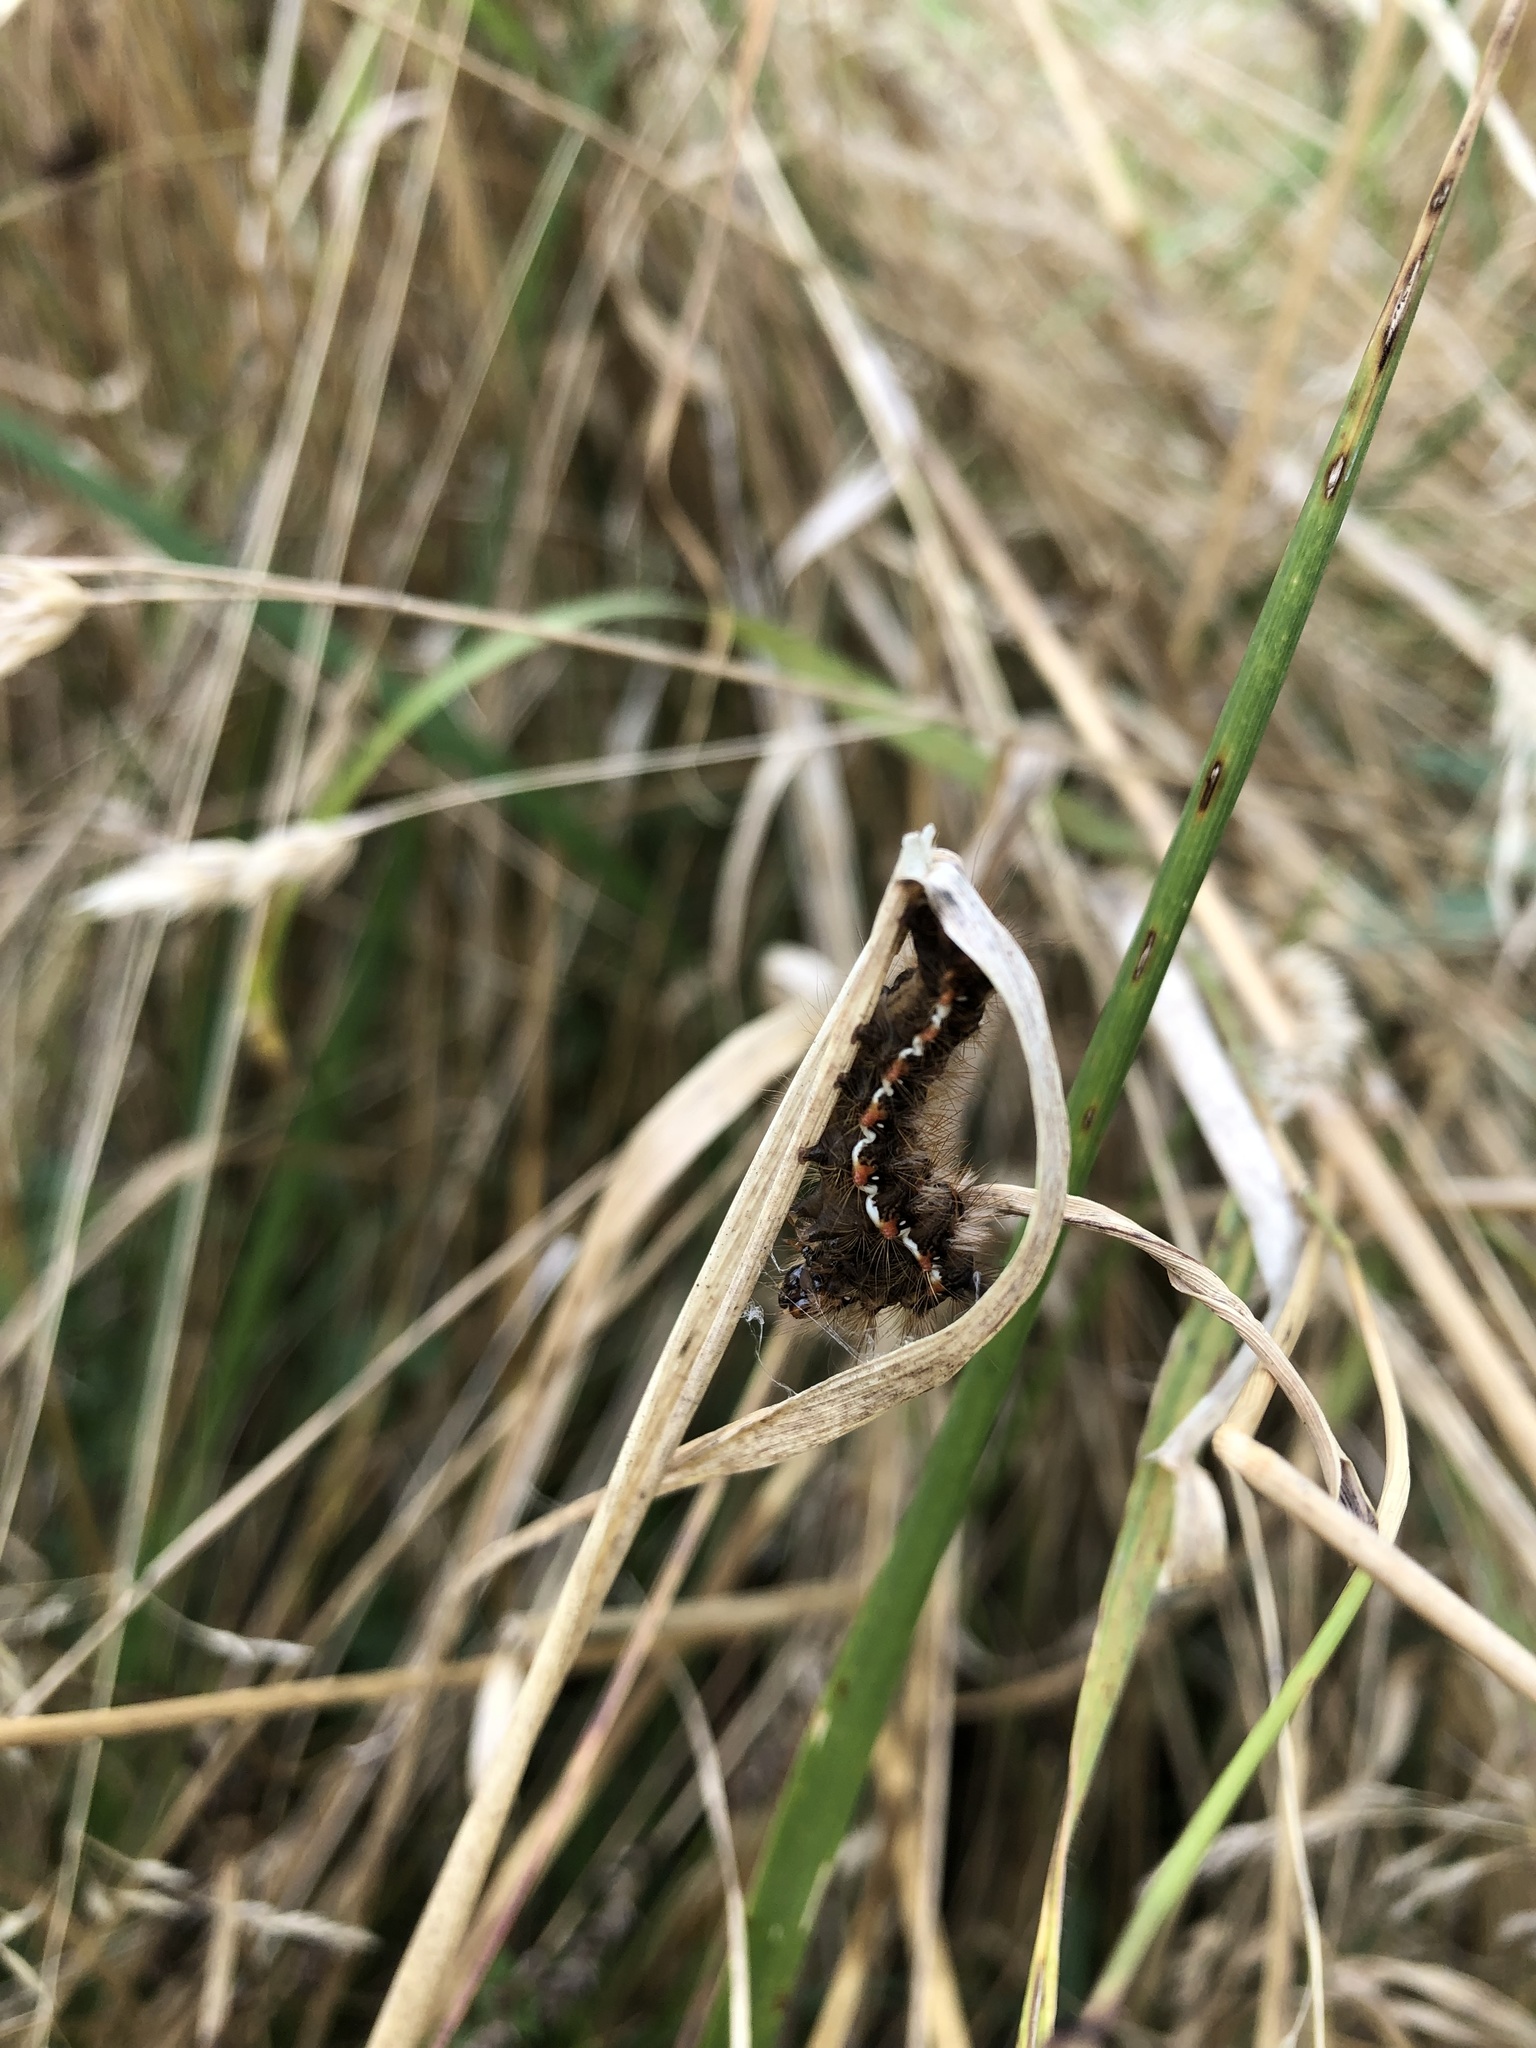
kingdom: Animalia
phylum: Arthropoda
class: Insecta
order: Lepidoptera
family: Noctuidae
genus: Acronicta
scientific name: Acronicta rumicis
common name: Knot grass
